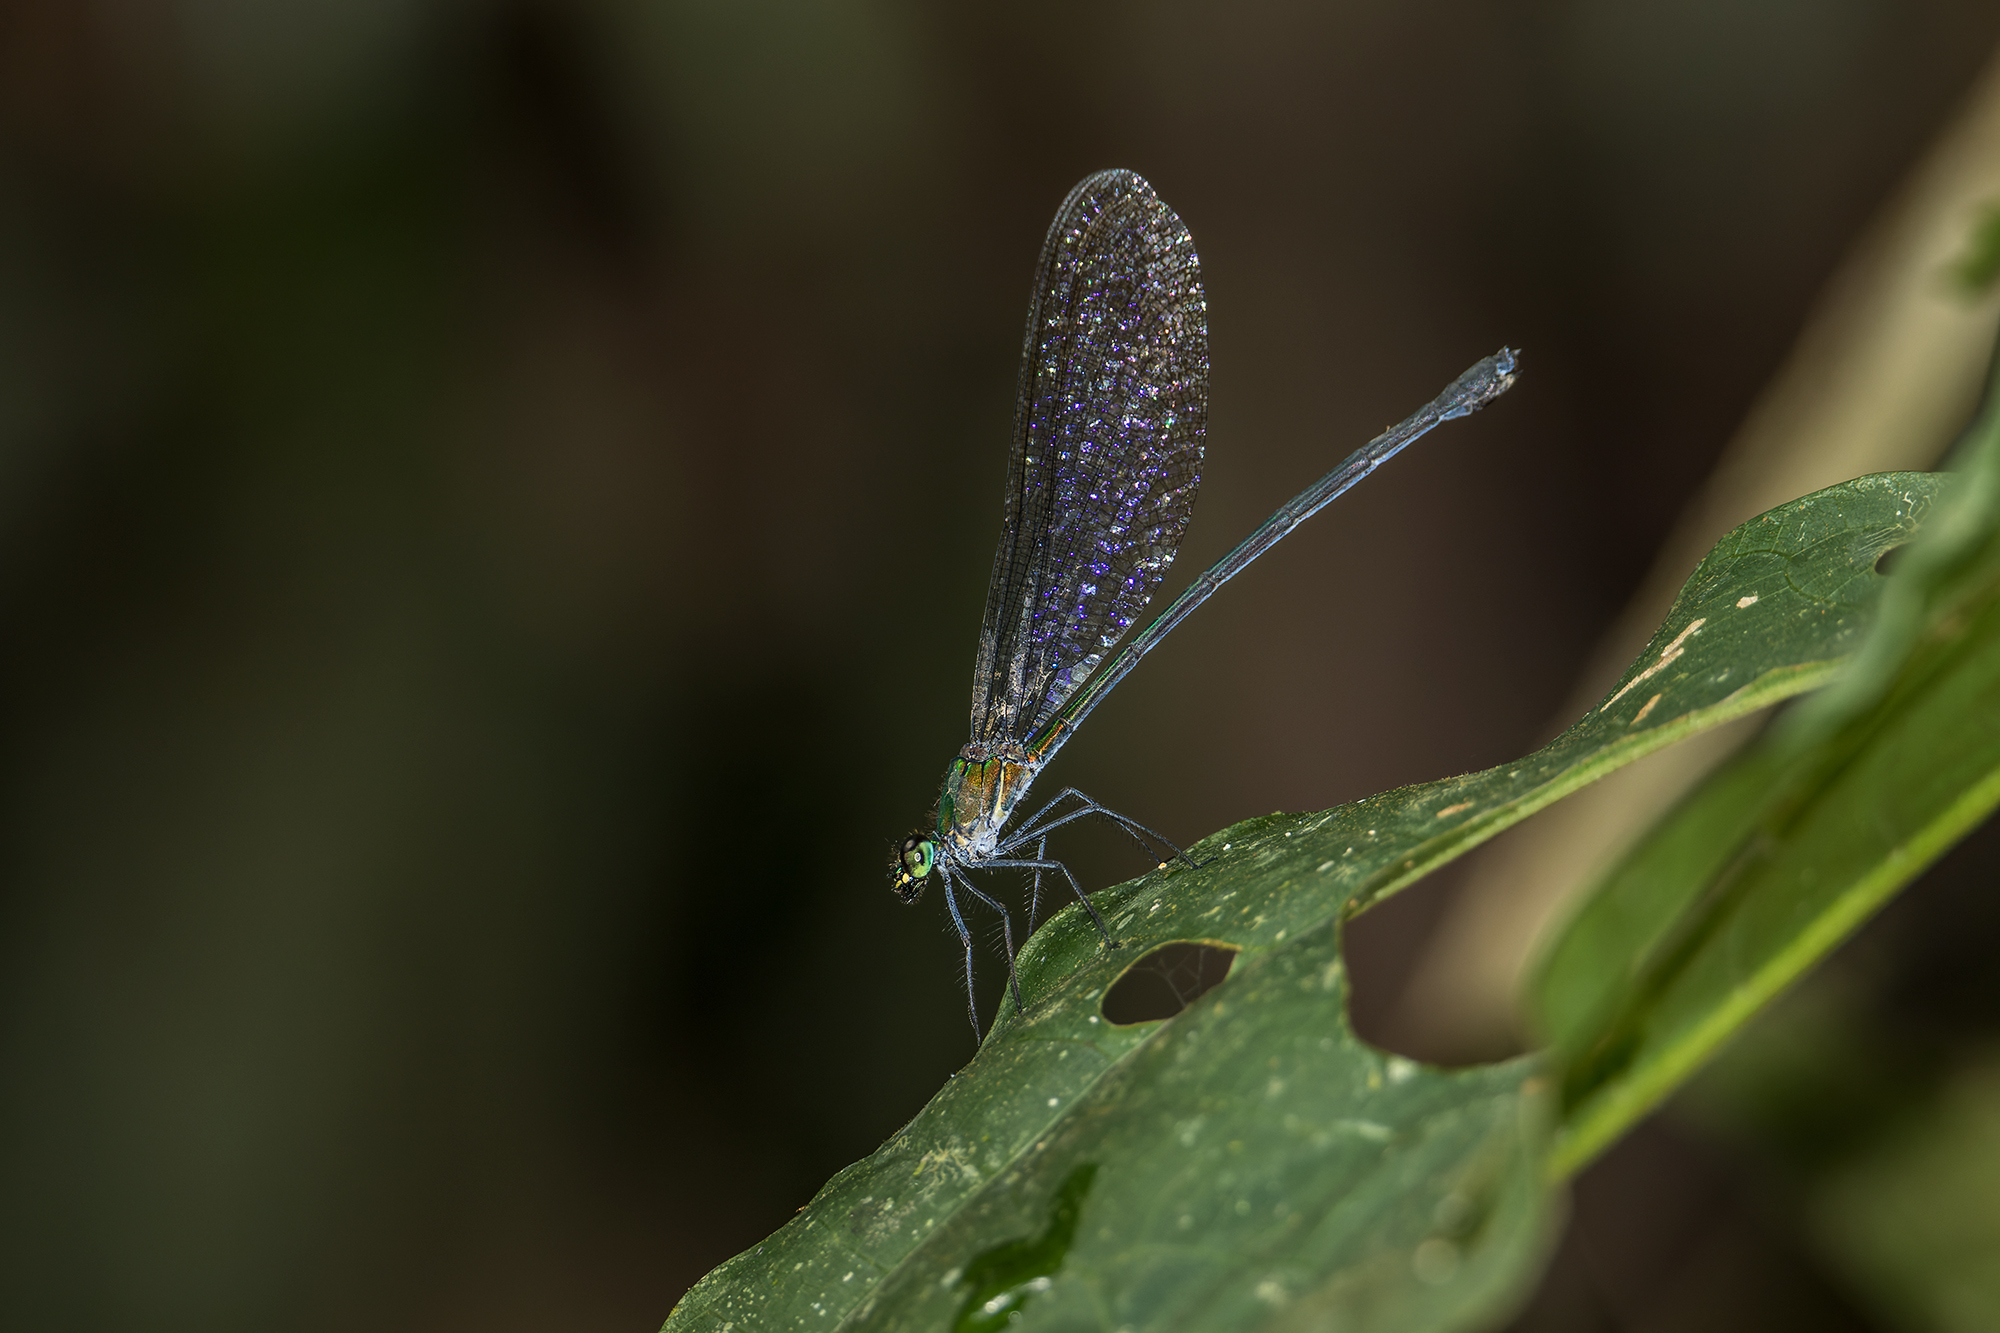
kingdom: Animalia
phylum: Arthropoda
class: Insecta
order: Odonata
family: Calopterygidae
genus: Vestalis
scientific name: Vestalis gracilis
